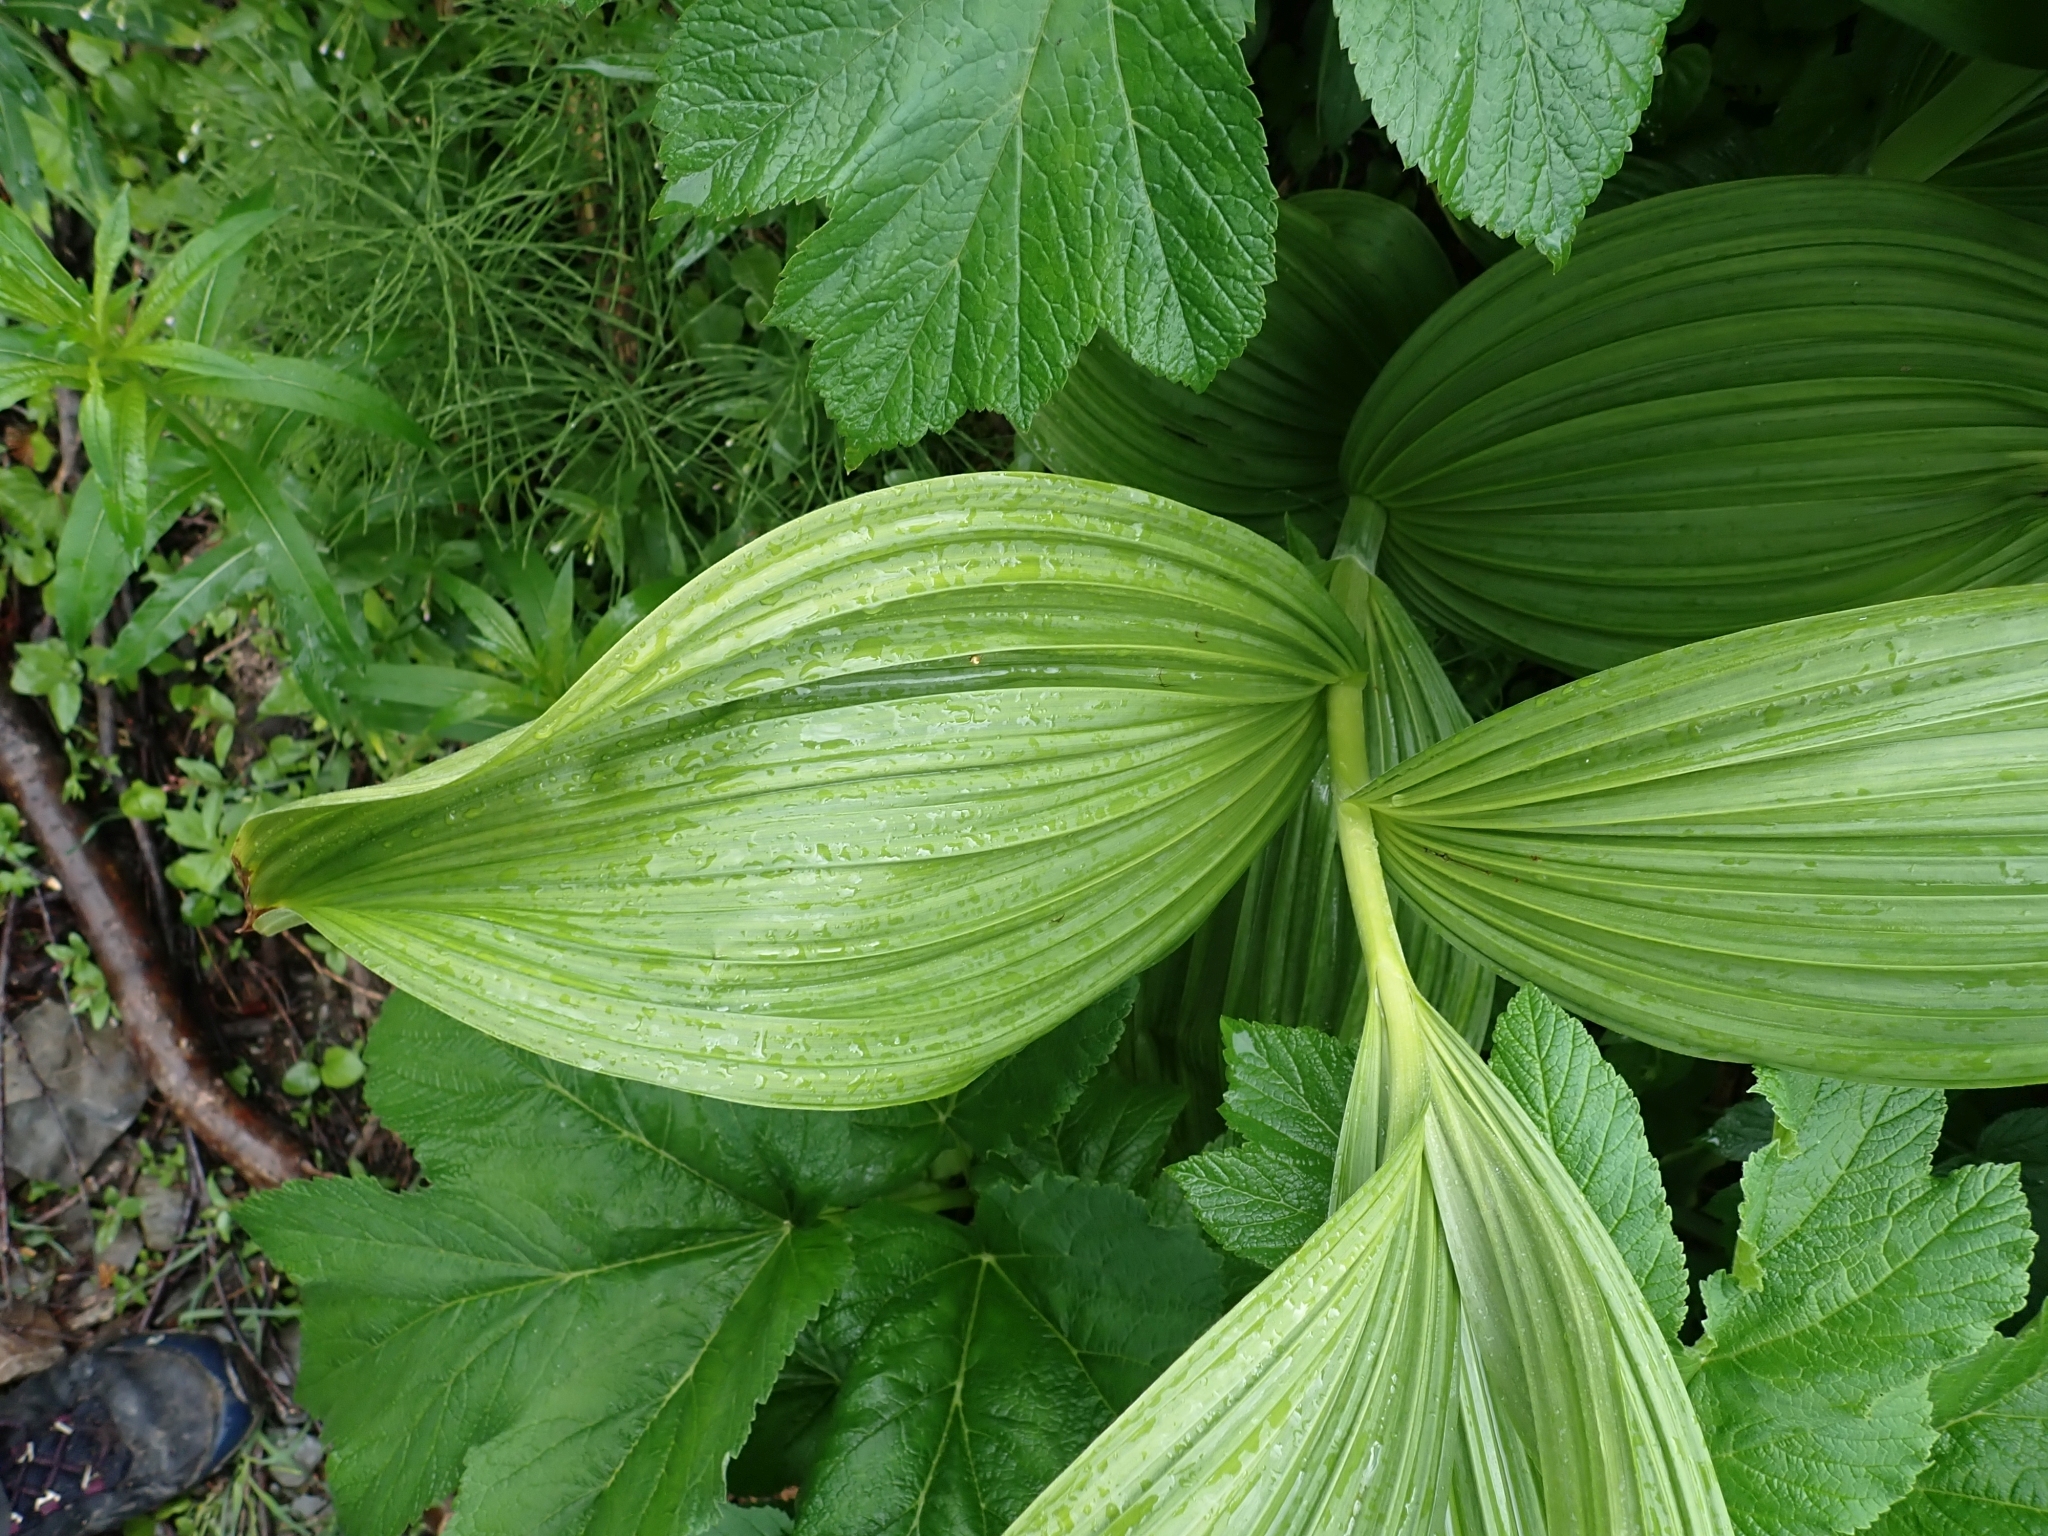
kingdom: Plantae
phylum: Tracheophyta
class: Liliopsida
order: Liliales
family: Melanthiaceae
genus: Veratrum
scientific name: Veratrum viride
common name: American false hellebore
